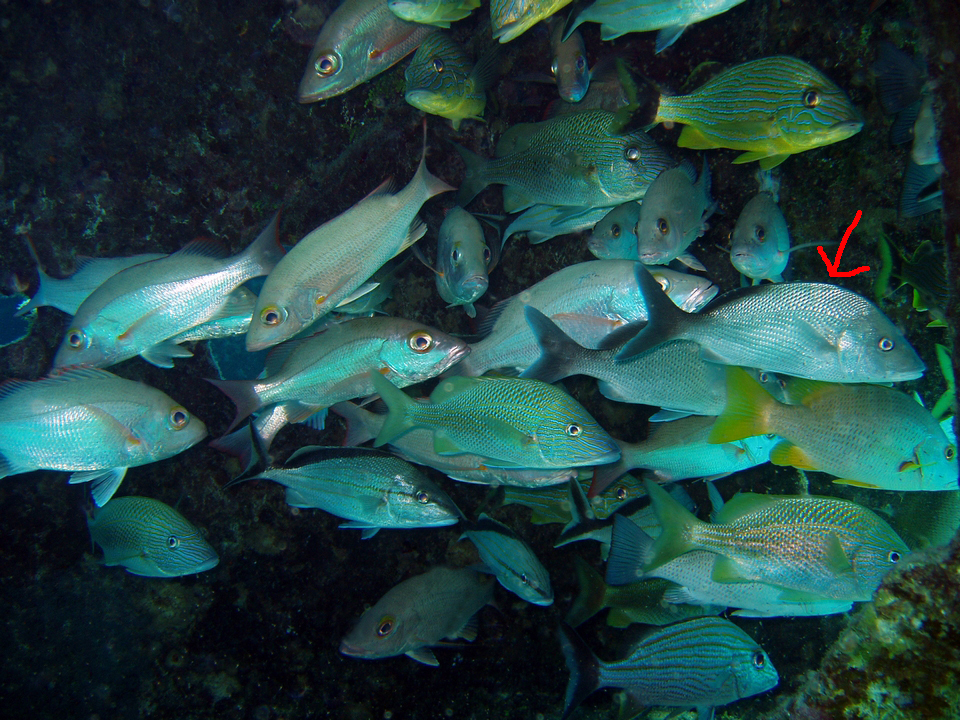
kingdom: Animalia
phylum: Chordata
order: Perciformes
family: Haemulidae
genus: Haemulon
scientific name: Haemulon album
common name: Margate
